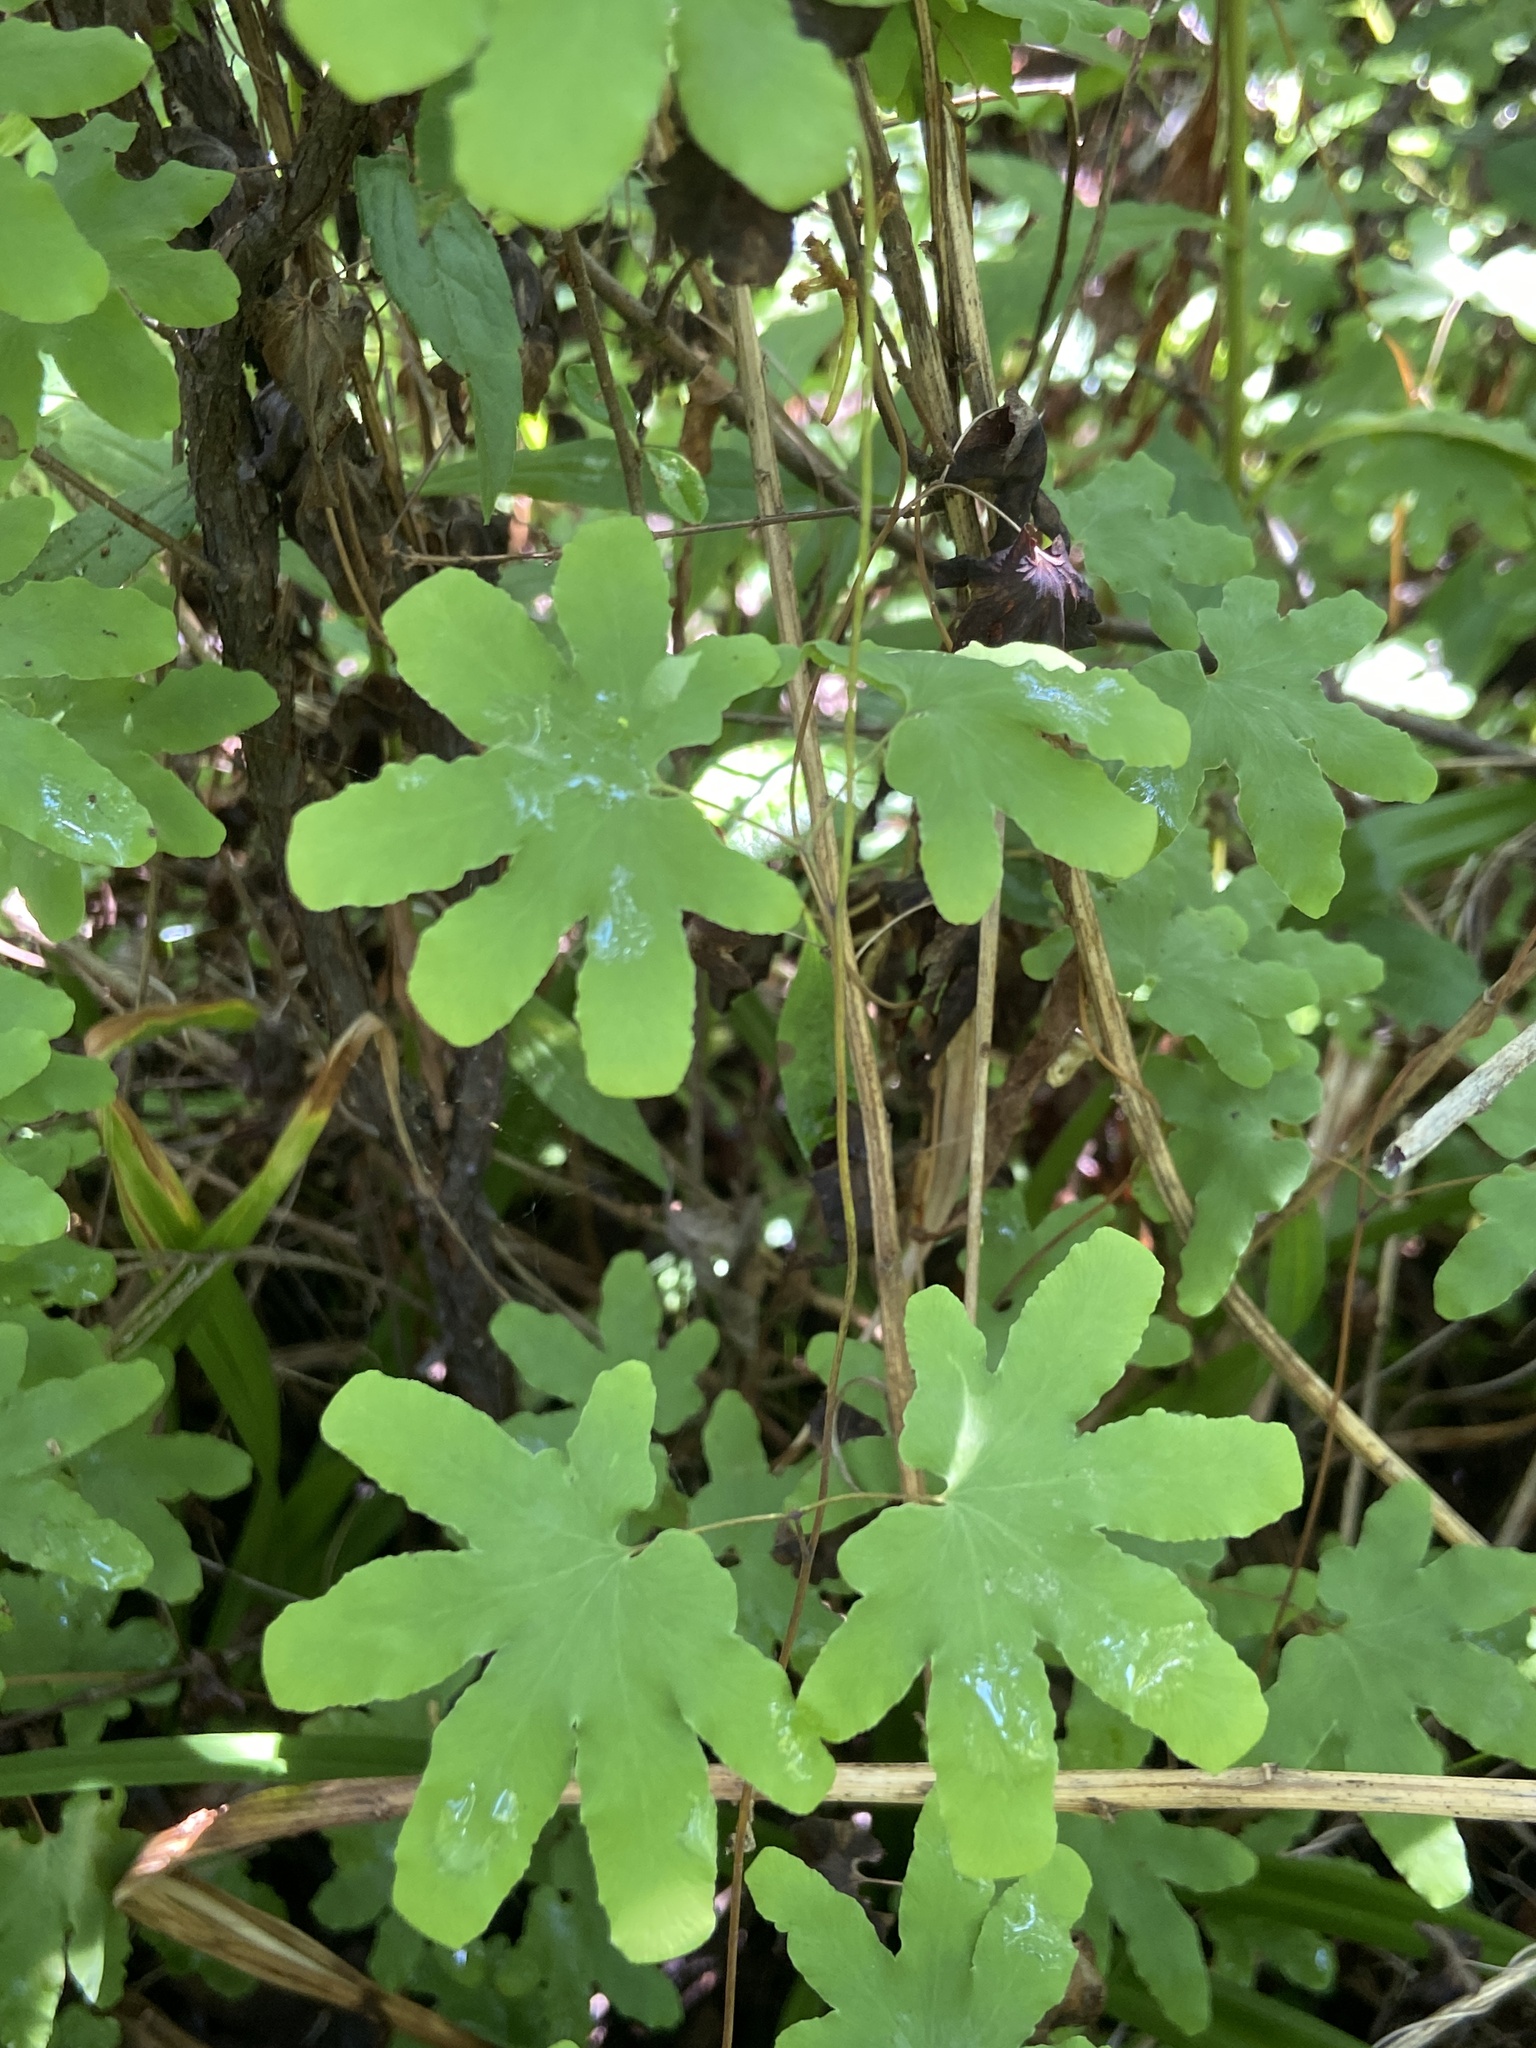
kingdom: Plantae
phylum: Tracheophyta
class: Polypodiopsida
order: Schizaeales
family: Lygodiaceae
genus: Lygodium
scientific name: Lygodium palmatum
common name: American climbing fern
